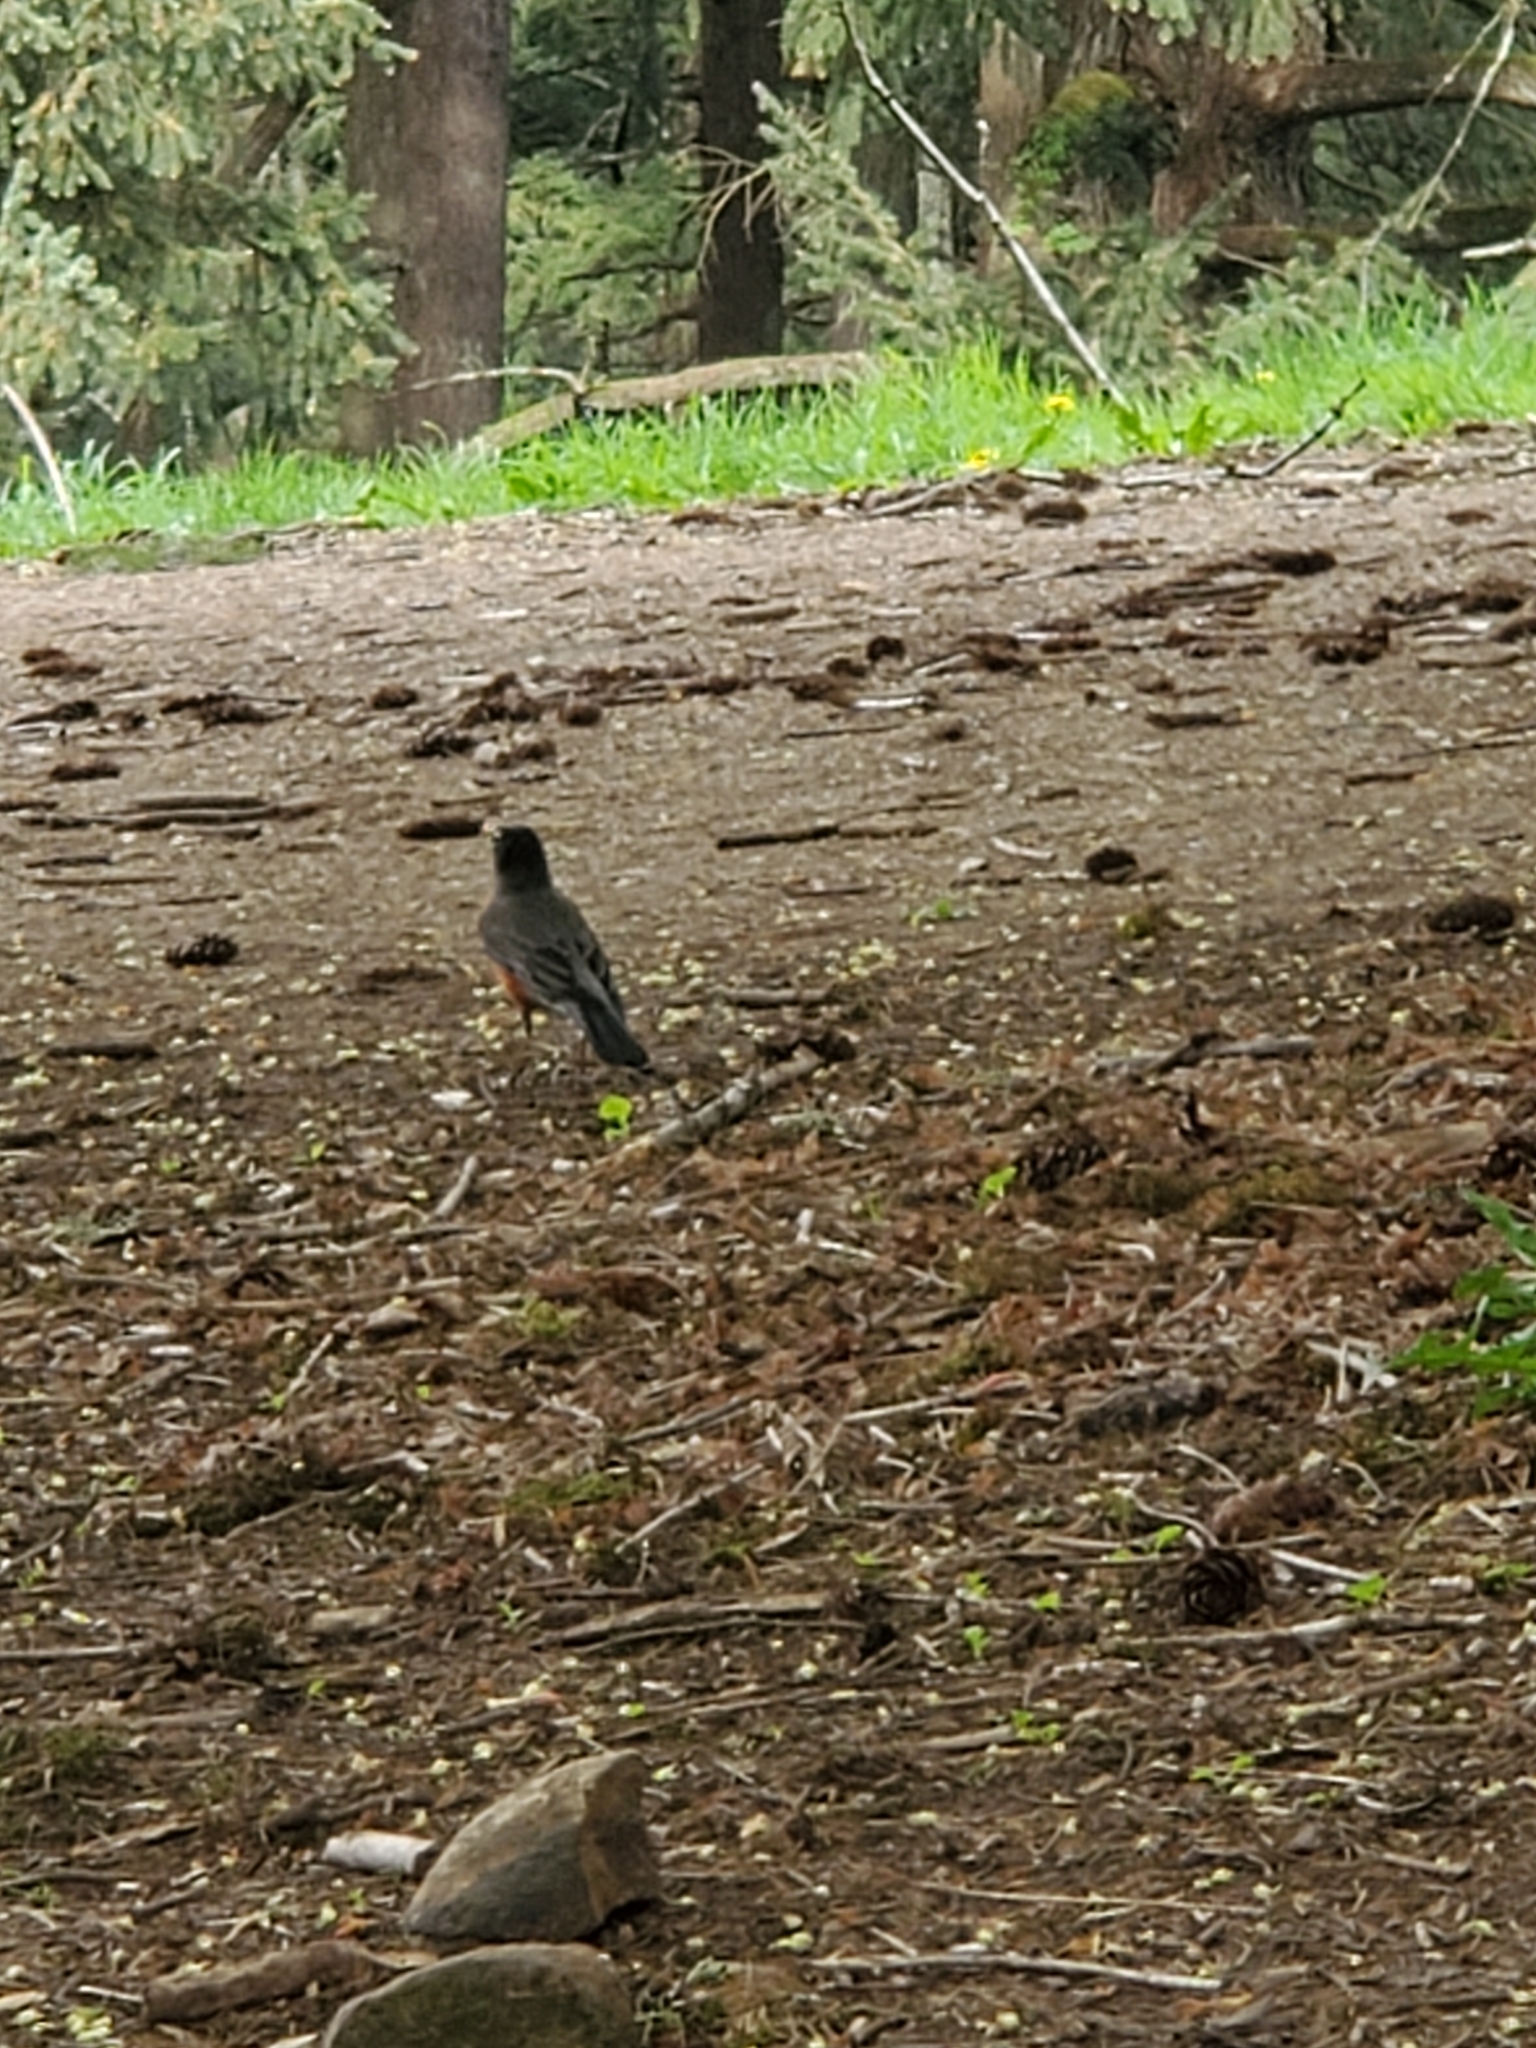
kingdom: Animalia
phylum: Chordata
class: Aves
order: Passeriformes
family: Turdidae
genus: Turdus
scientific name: Turdus migratorius
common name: American robin
